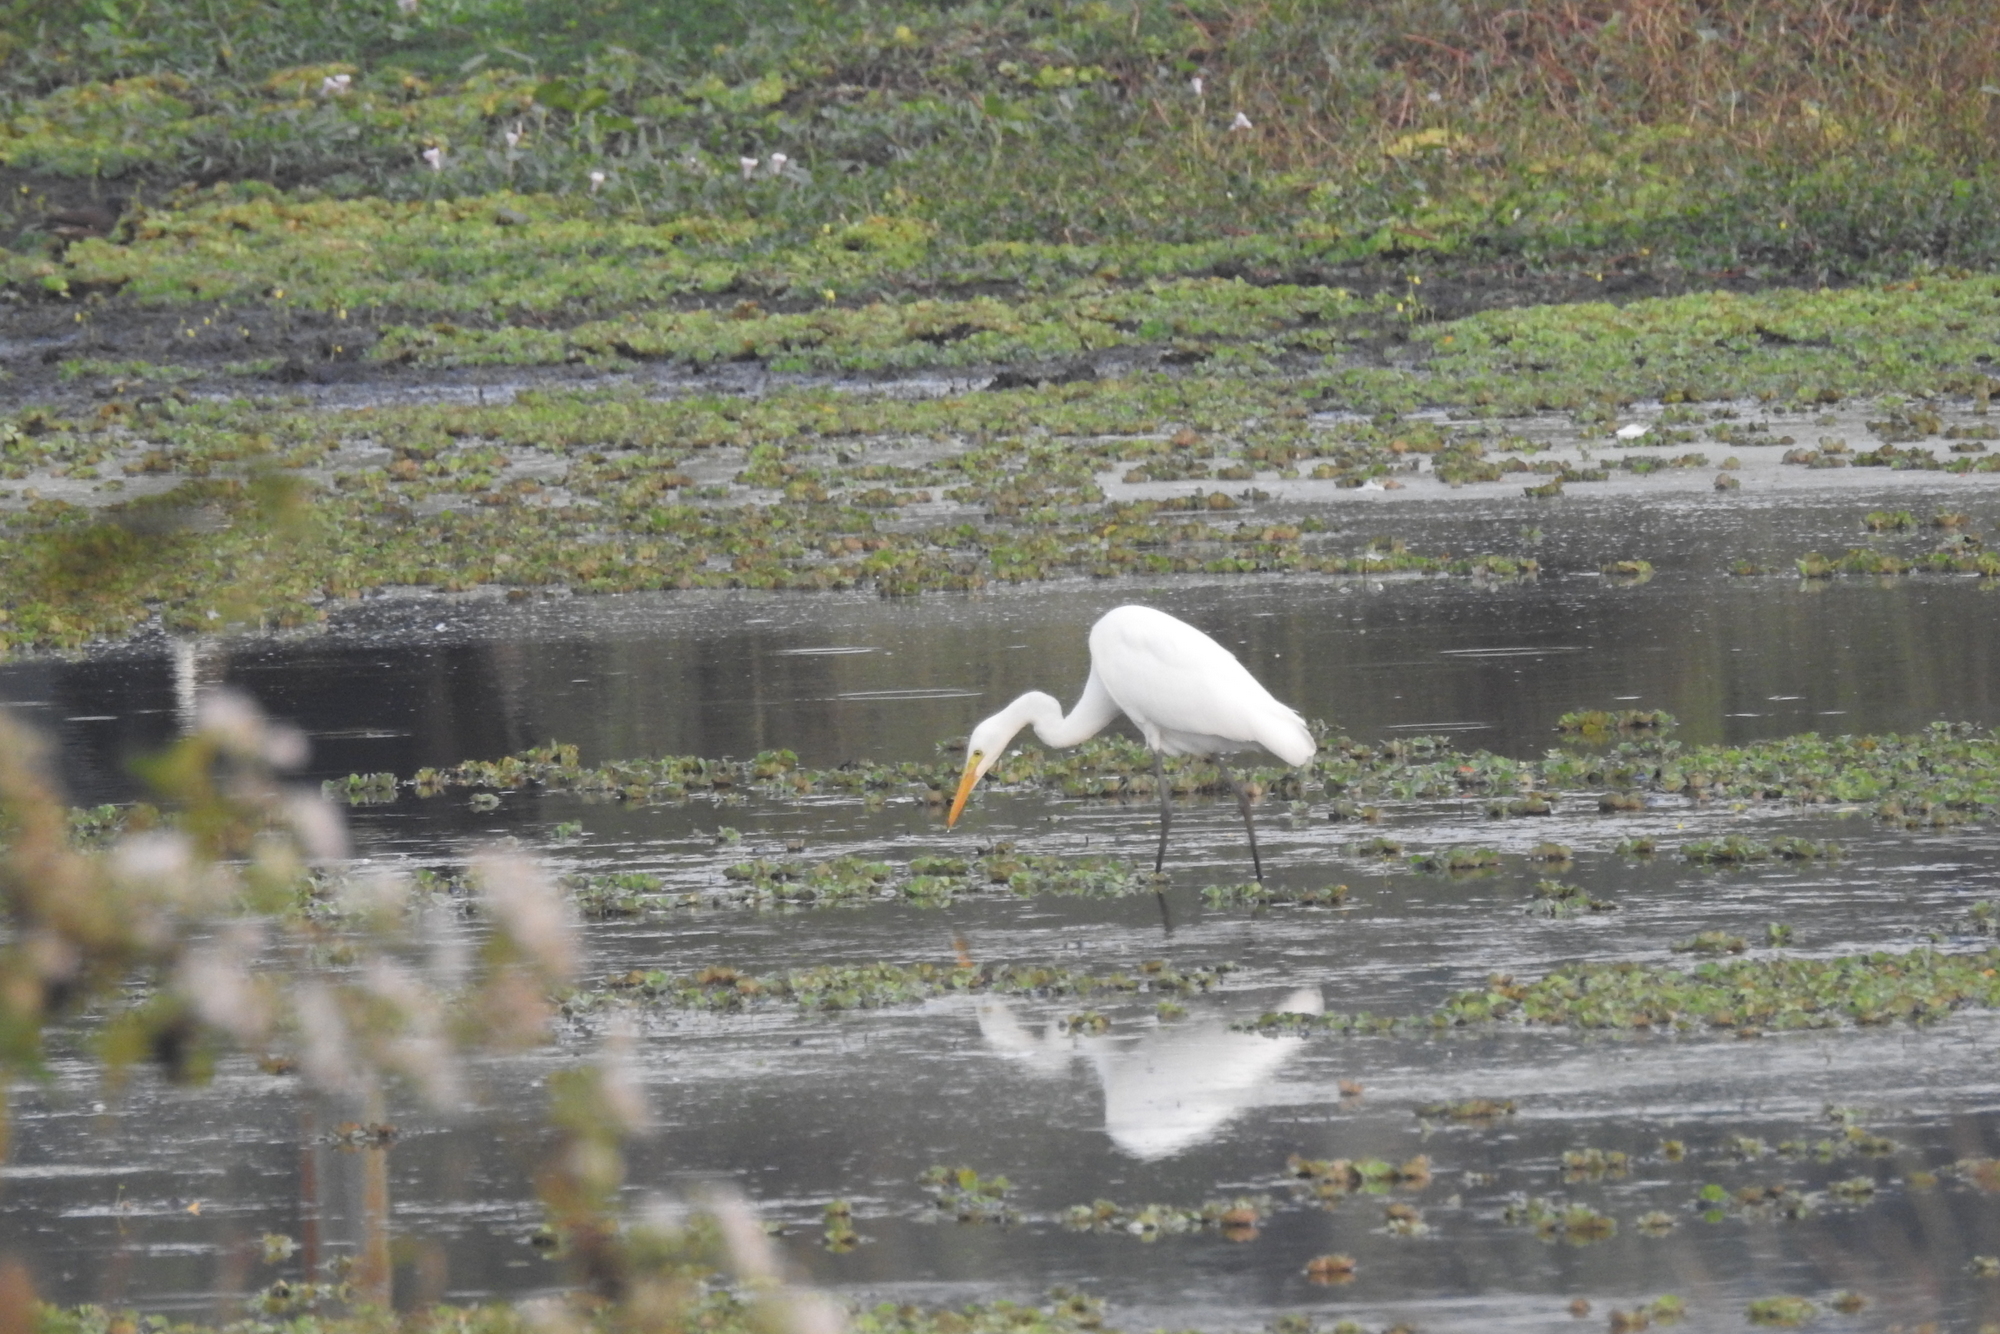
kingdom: Animalia
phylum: Chordata
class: Aves
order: Pelecaniformes
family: Ardeidae
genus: Egretta
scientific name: Egretta intermedia
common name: Intermediate egret
